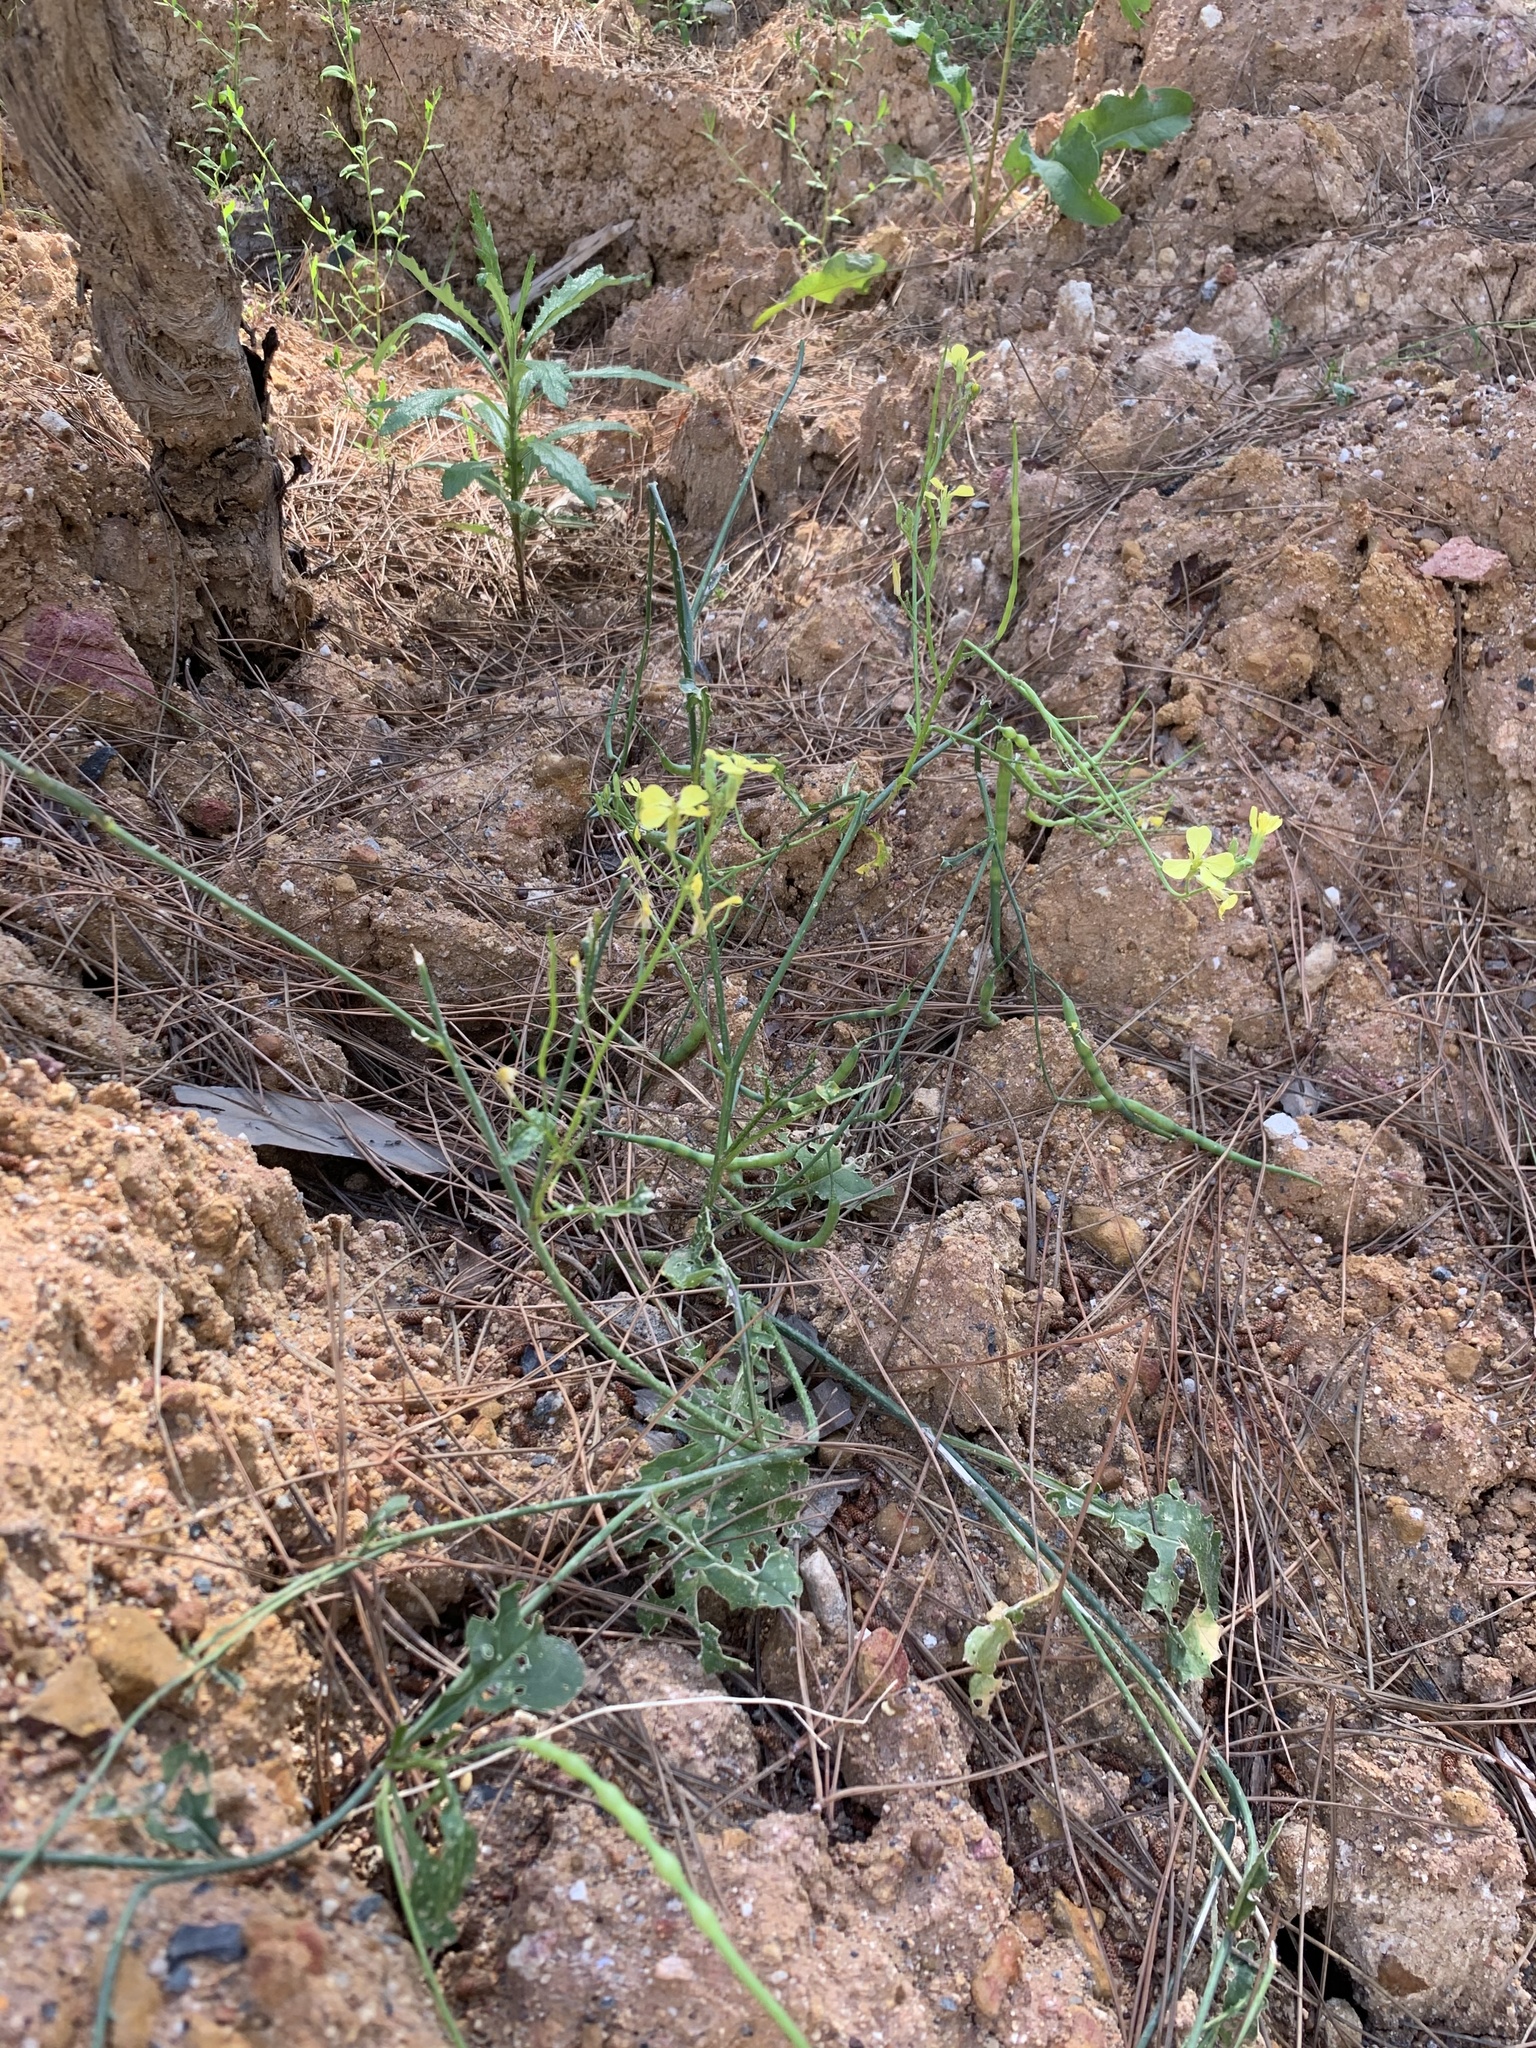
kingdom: Plantae
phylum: Tracheophyta
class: Magnoliopsida
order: Brassicales
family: Brassicaceae
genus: Raphanus
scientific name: Raphanus raphanistrum
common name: Wild radish
